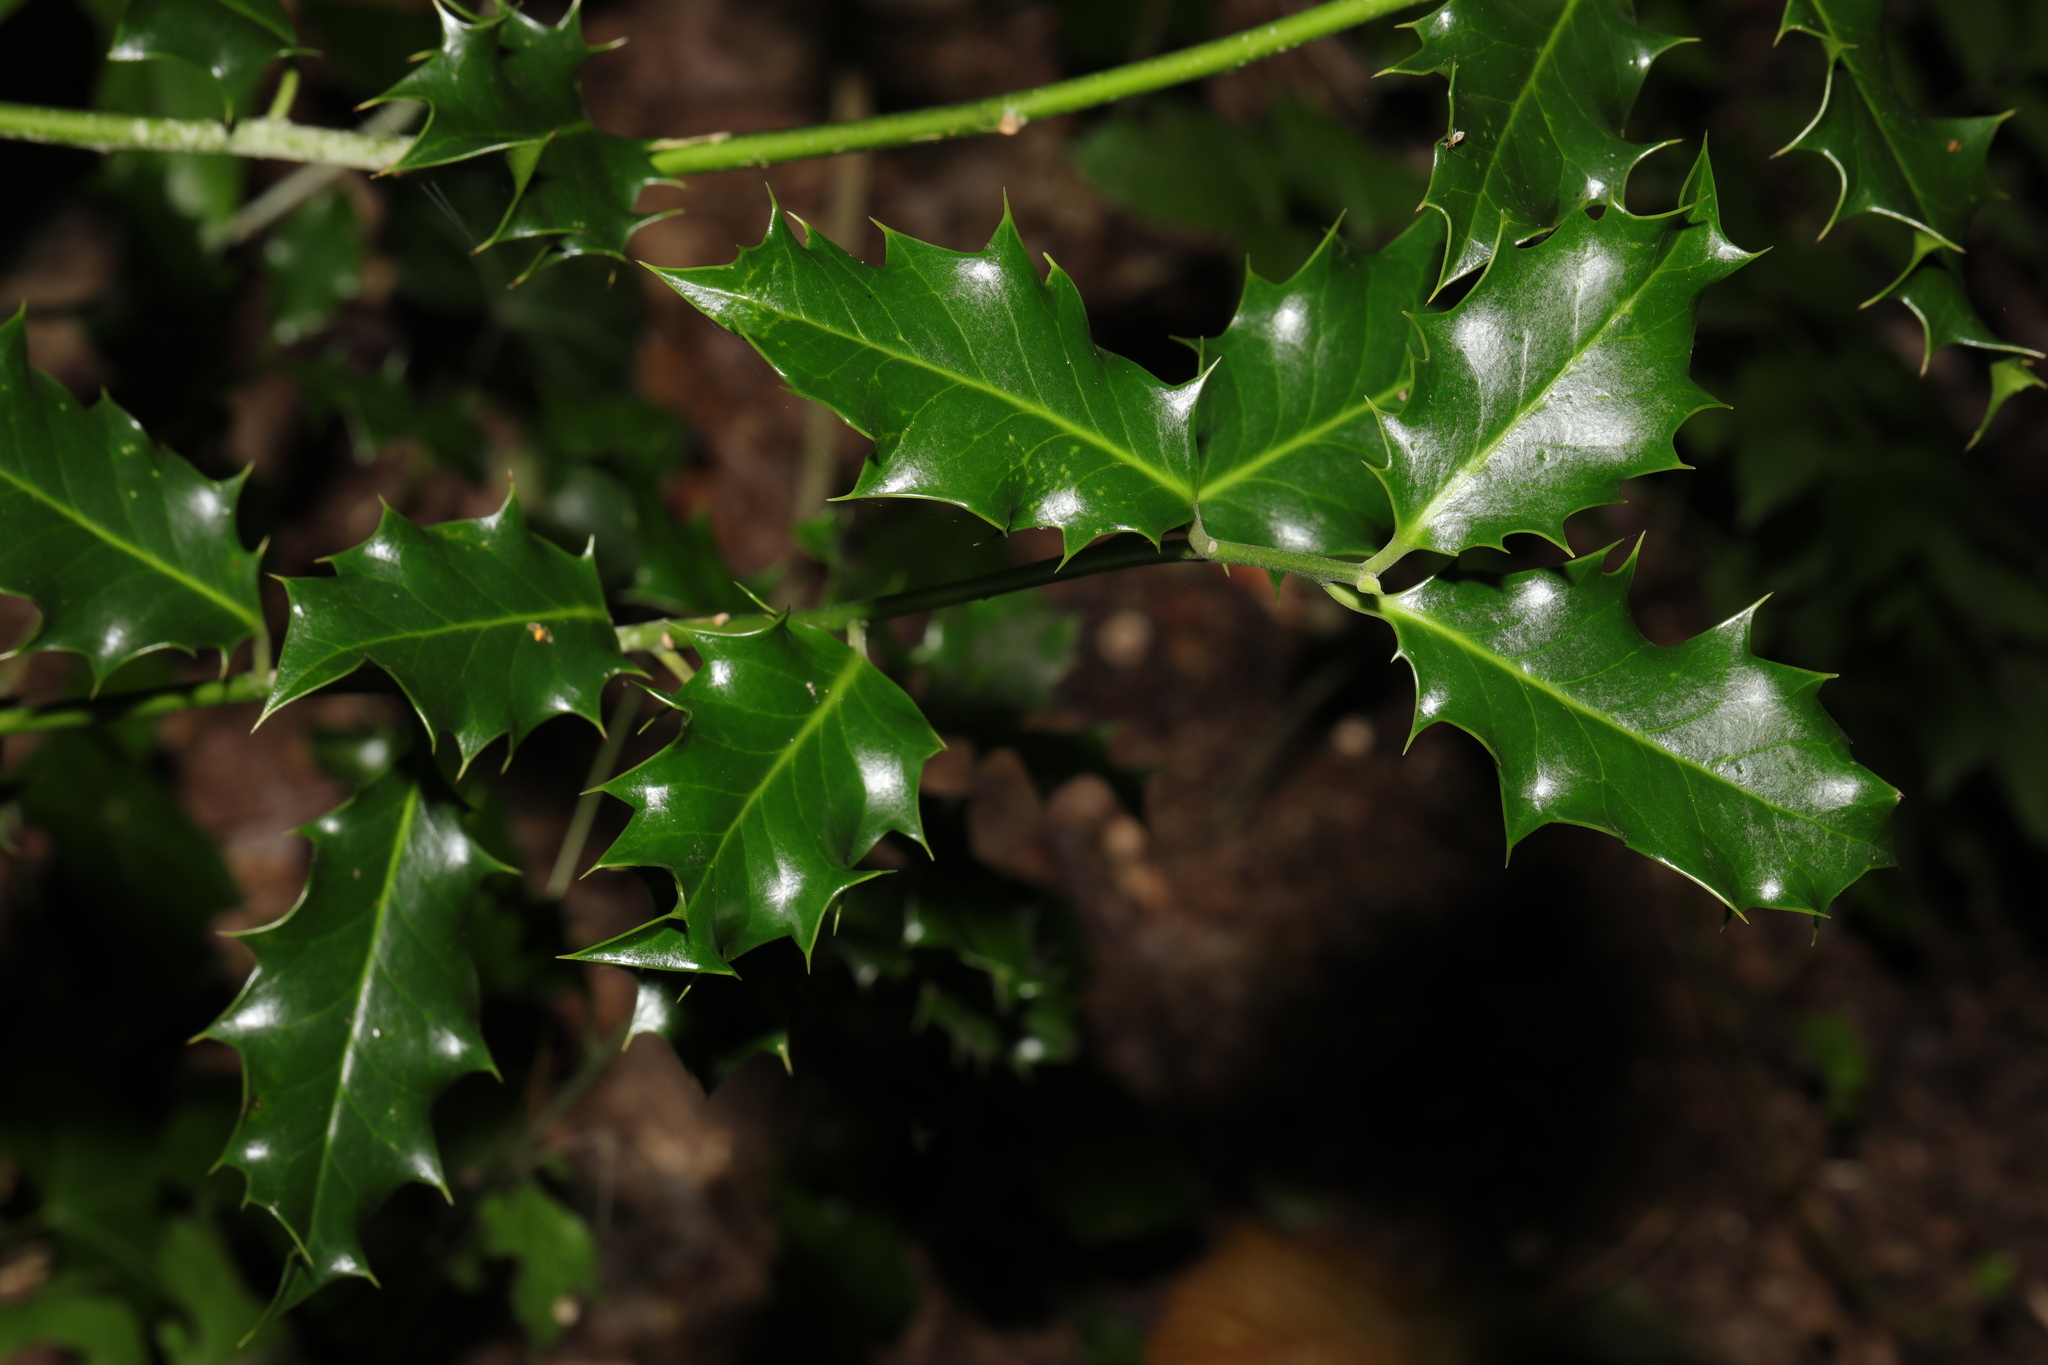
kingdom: Plantae
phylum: Tracheophyta
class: Magnoliopsida
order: Aquifoliales
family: Aquifoliaceae
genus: Ilex
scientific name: Ilex aquifolium
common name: English holly
